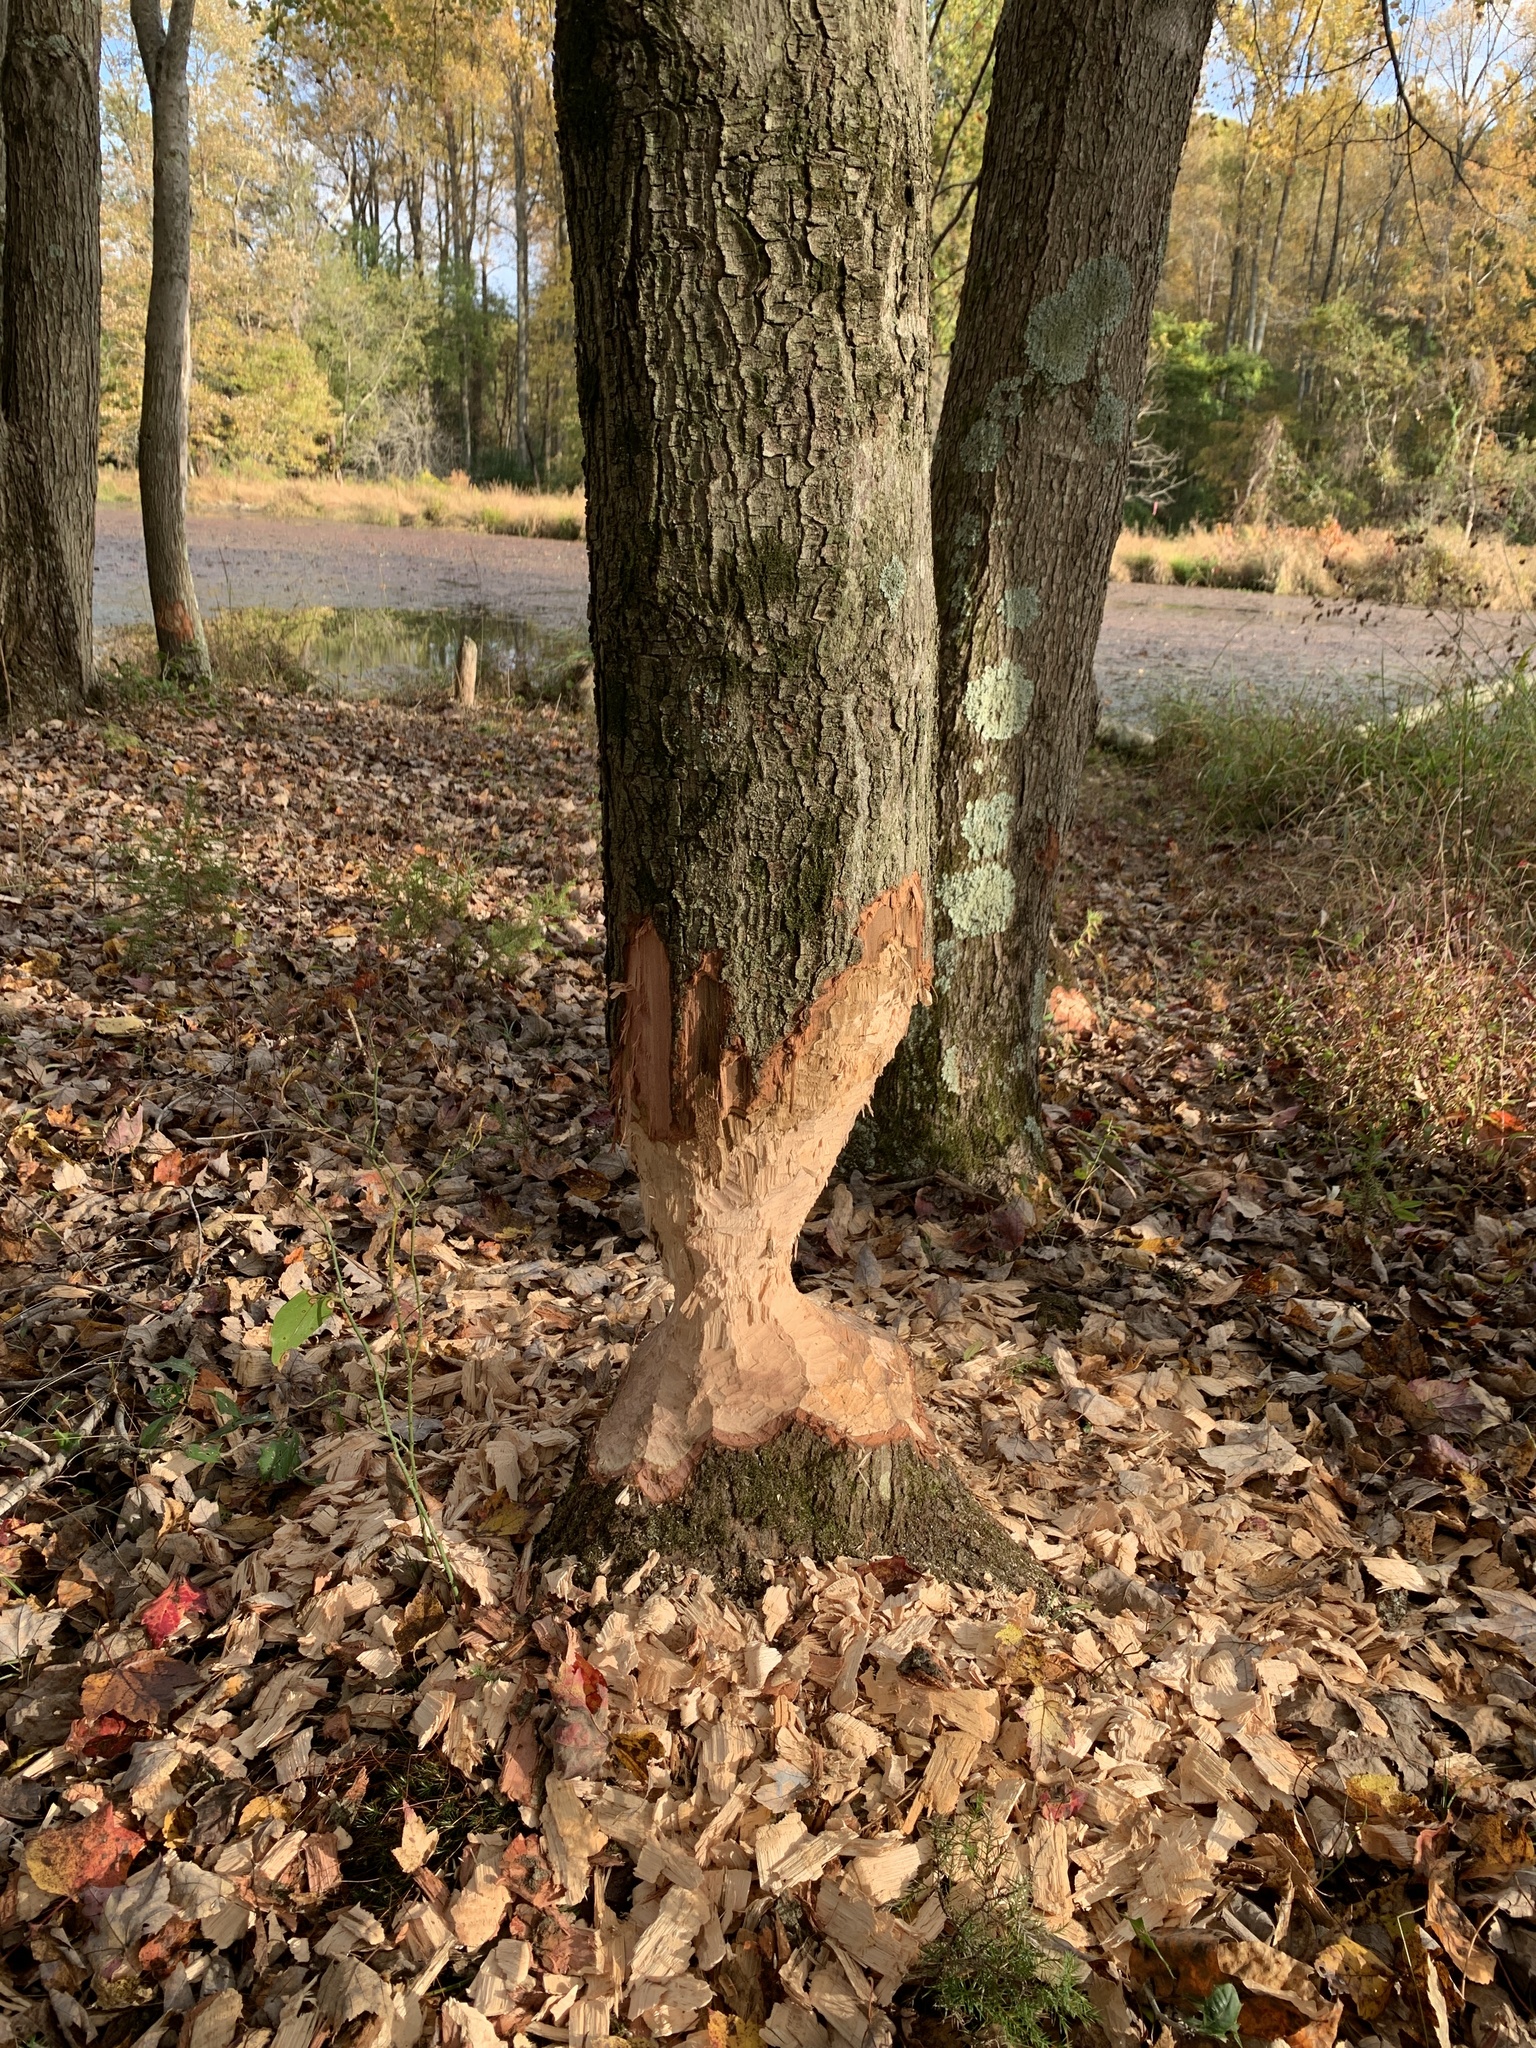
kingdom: Animalia
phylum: Chordata
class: Mammalia
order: Rodentia
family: Castoridae
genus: Castor
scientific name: Castor canadensis
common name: American beaver
